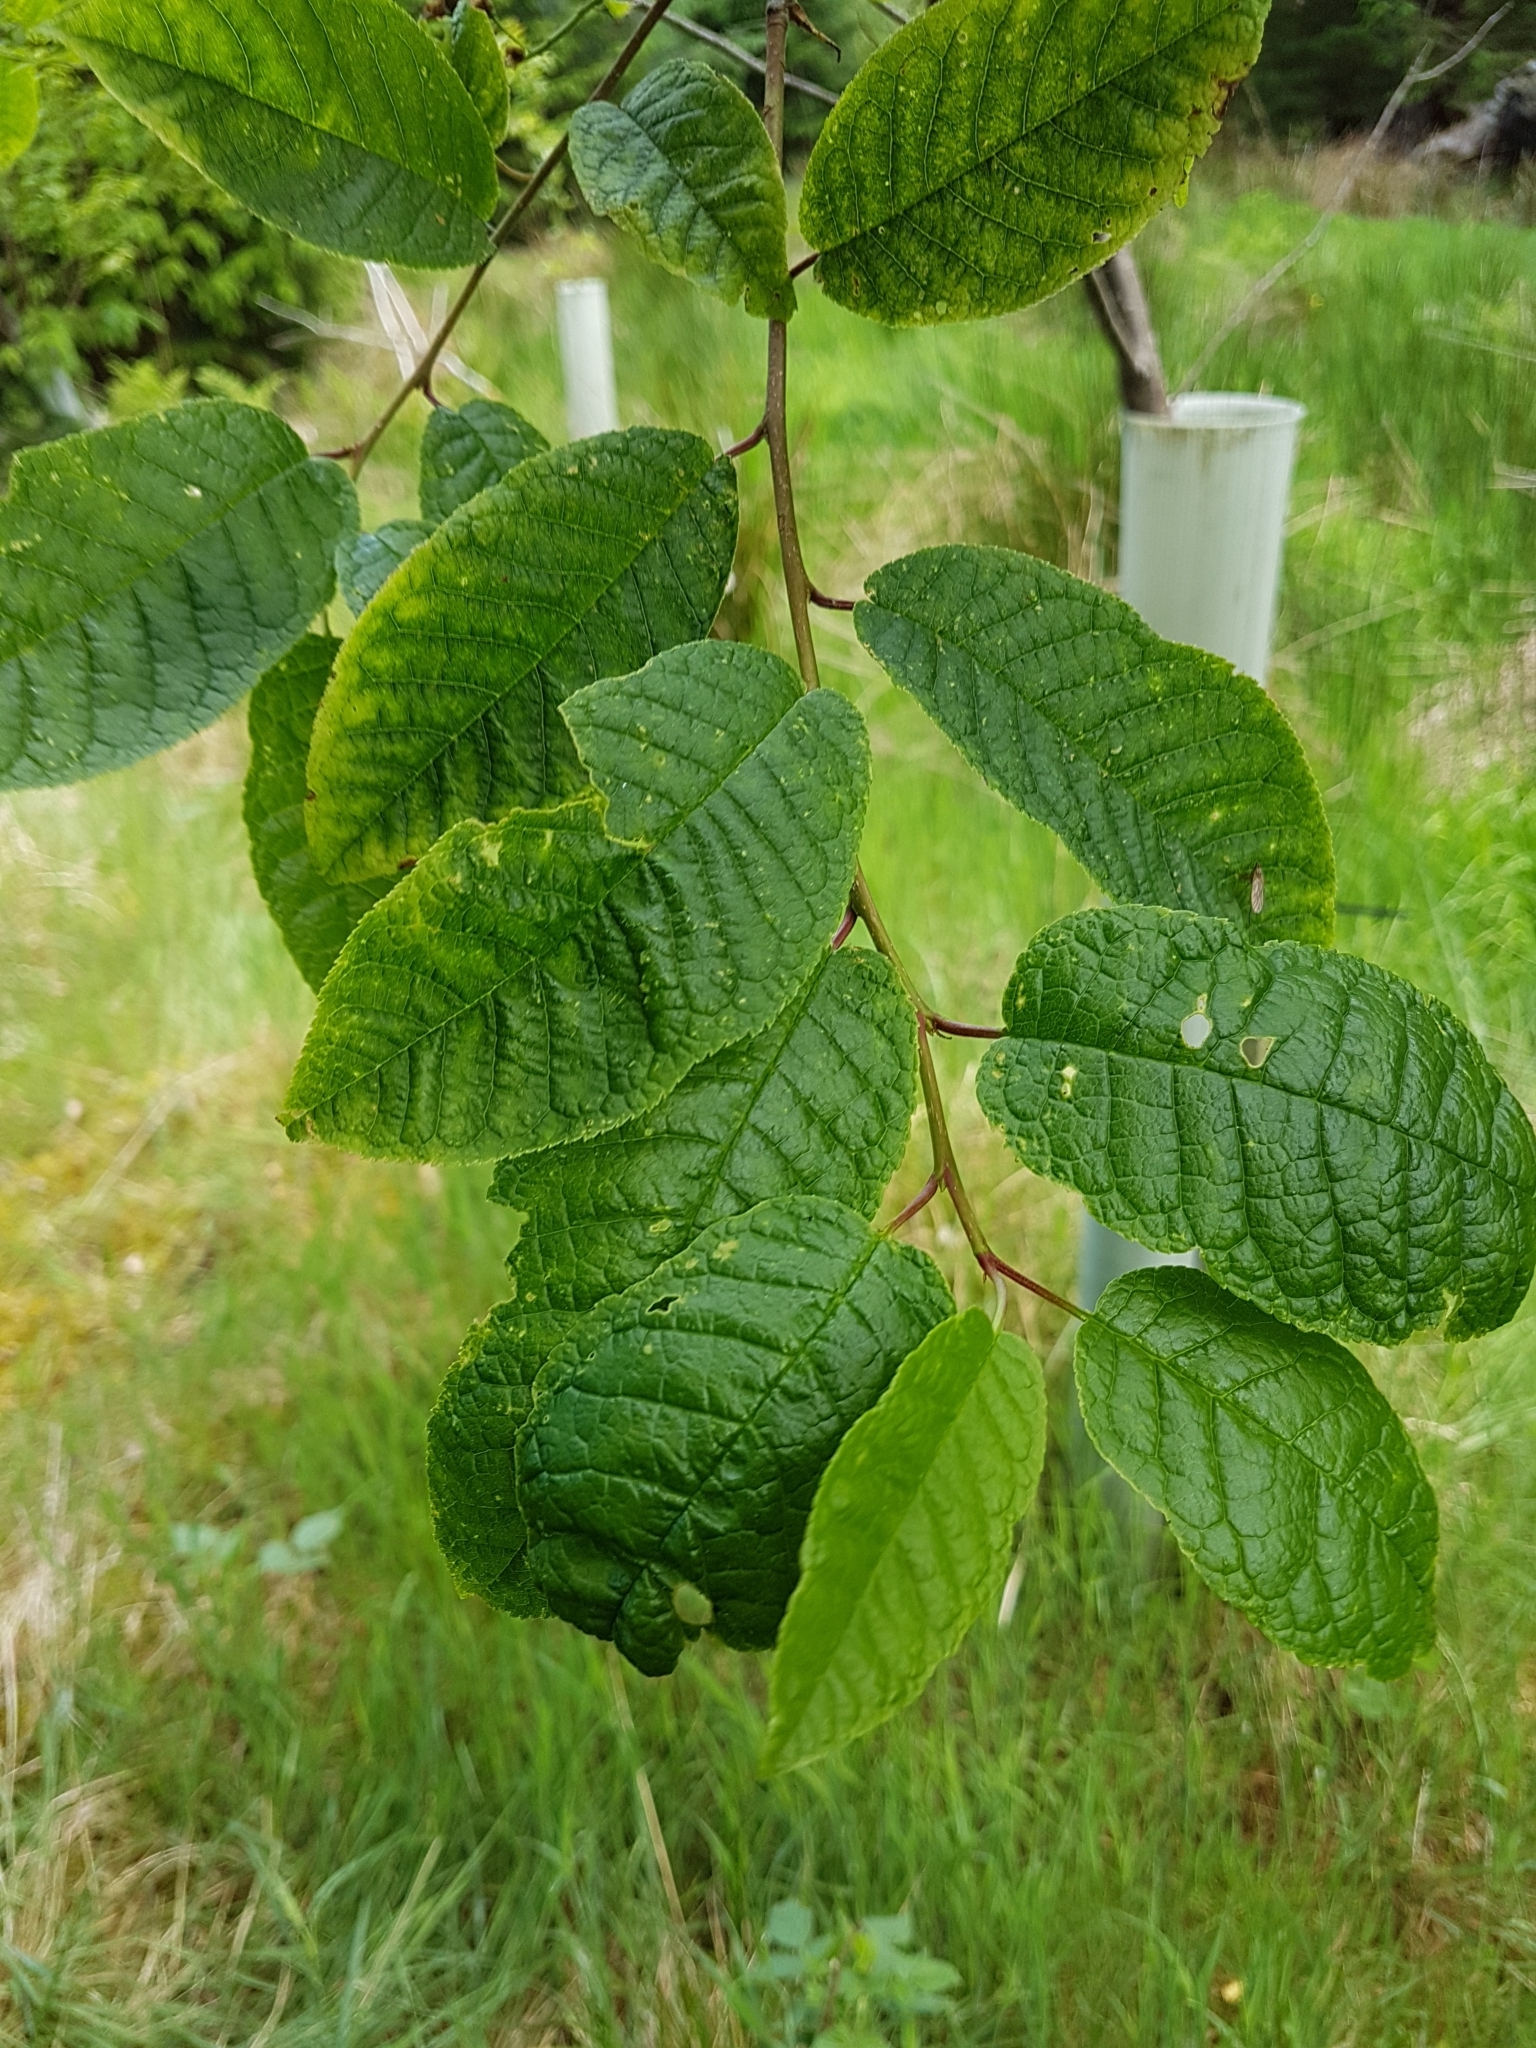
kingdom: Plantae
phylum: Tracheophyta
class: Magnoliopsida
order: Rosales
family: Rosaceae
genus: Prunus
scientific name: Prunus padus
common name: Bird cherry
